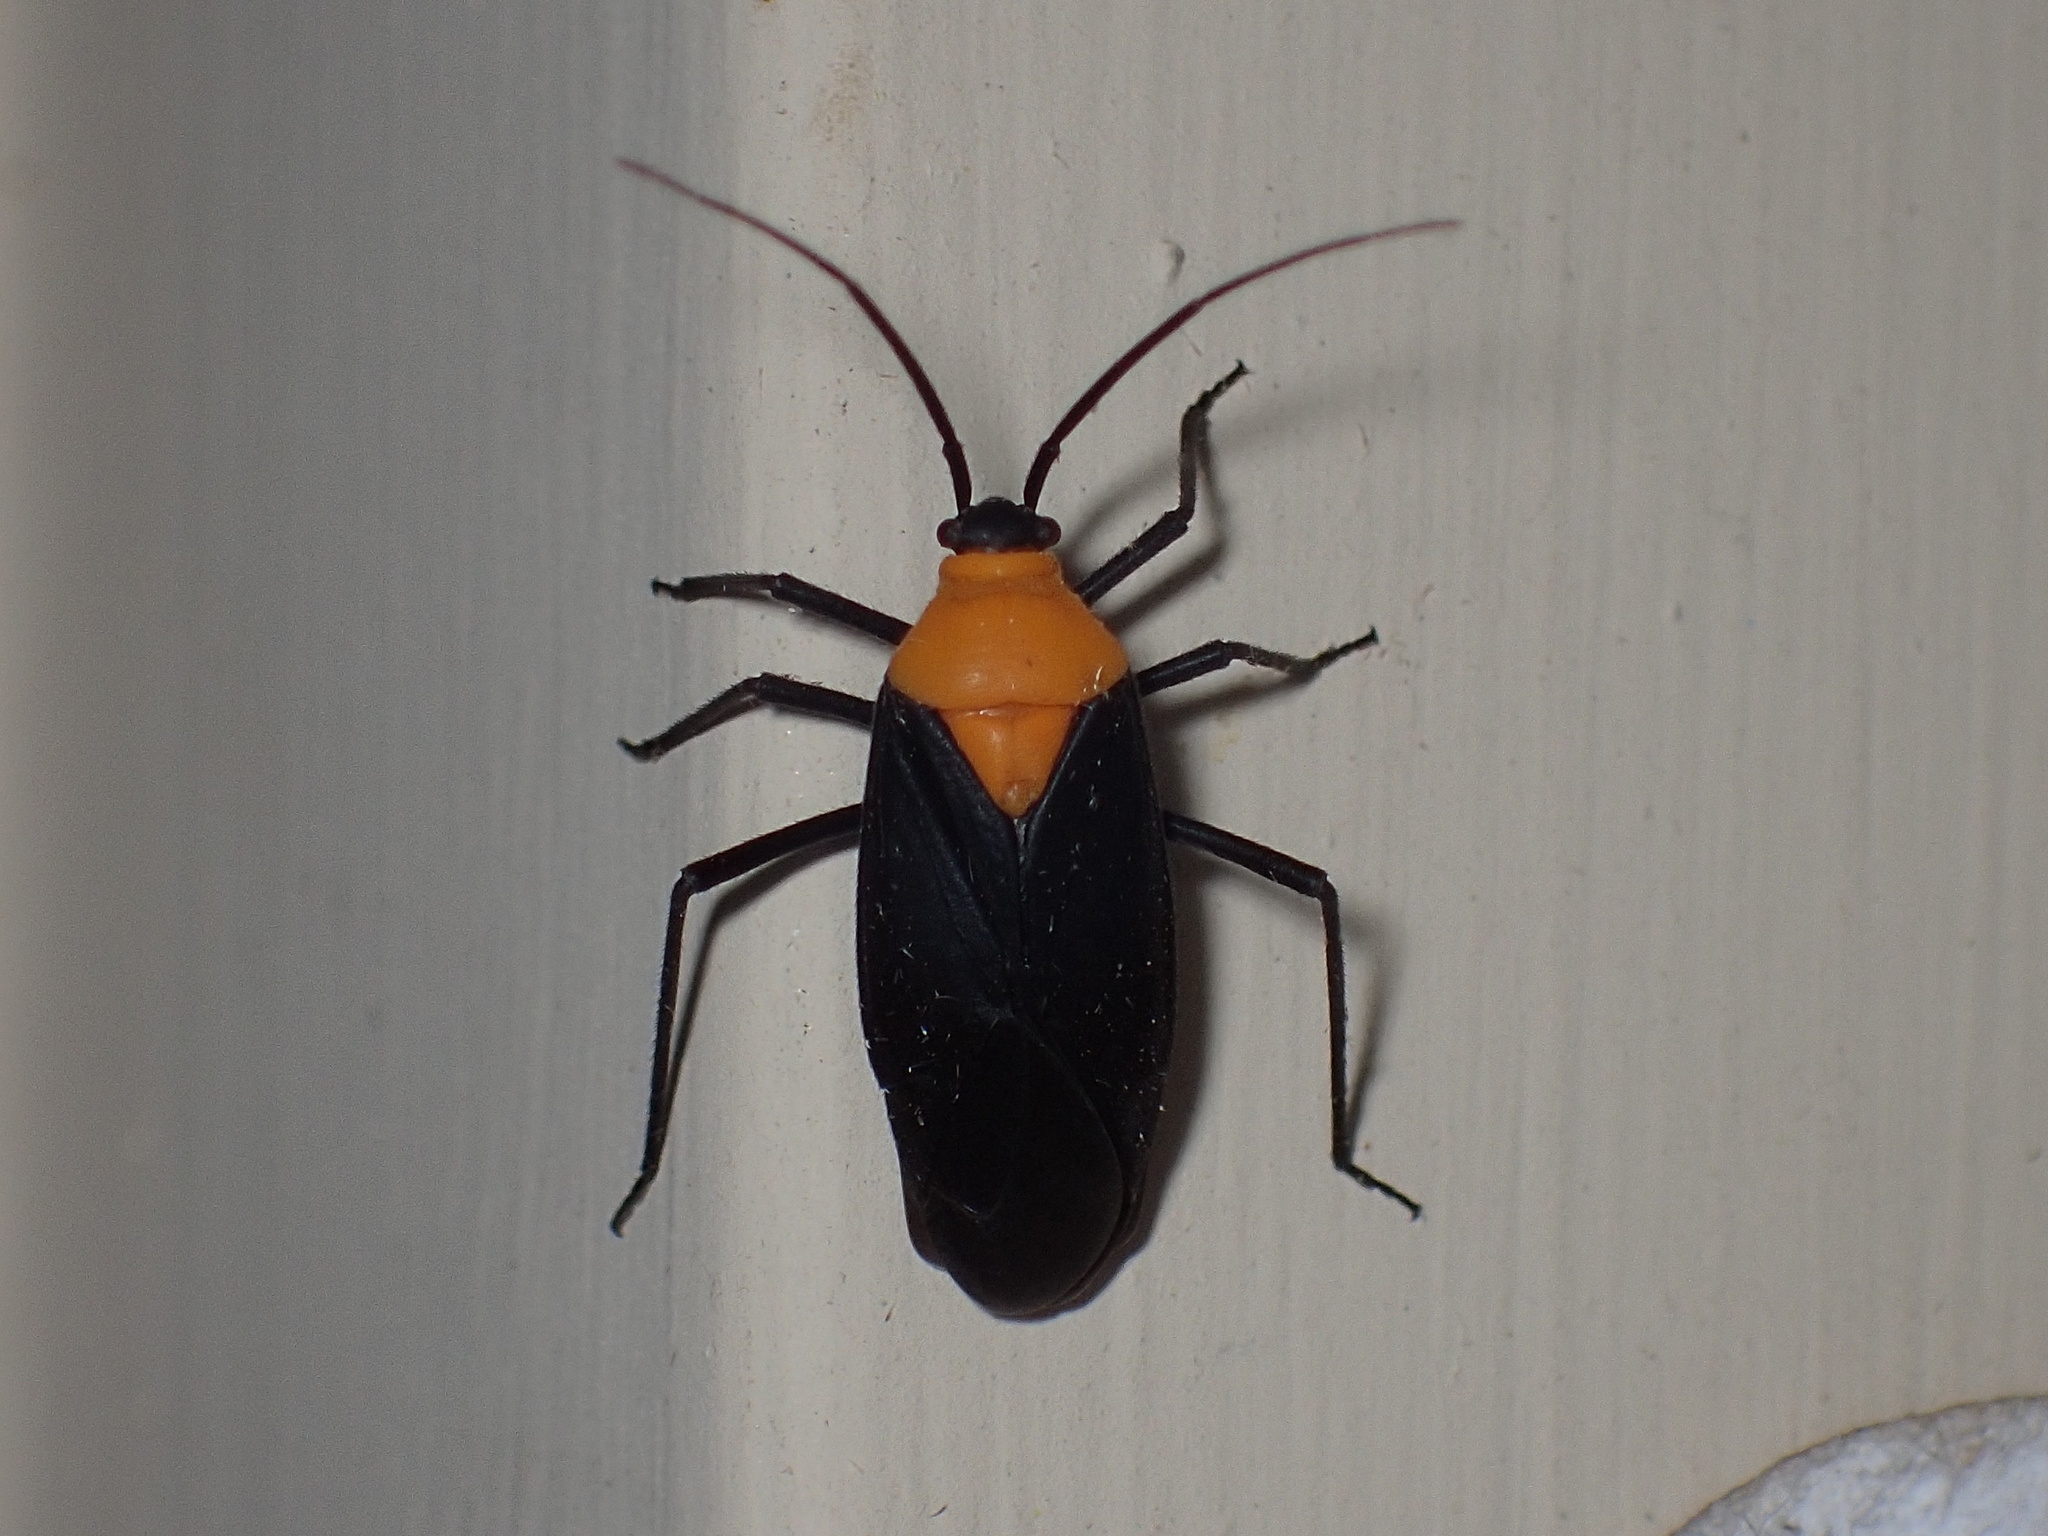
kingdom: Animalia
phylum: Arthropoda
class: Insecta
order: Hemiptera
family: Miridae
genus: Prepops
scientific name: Prepops insitivus
